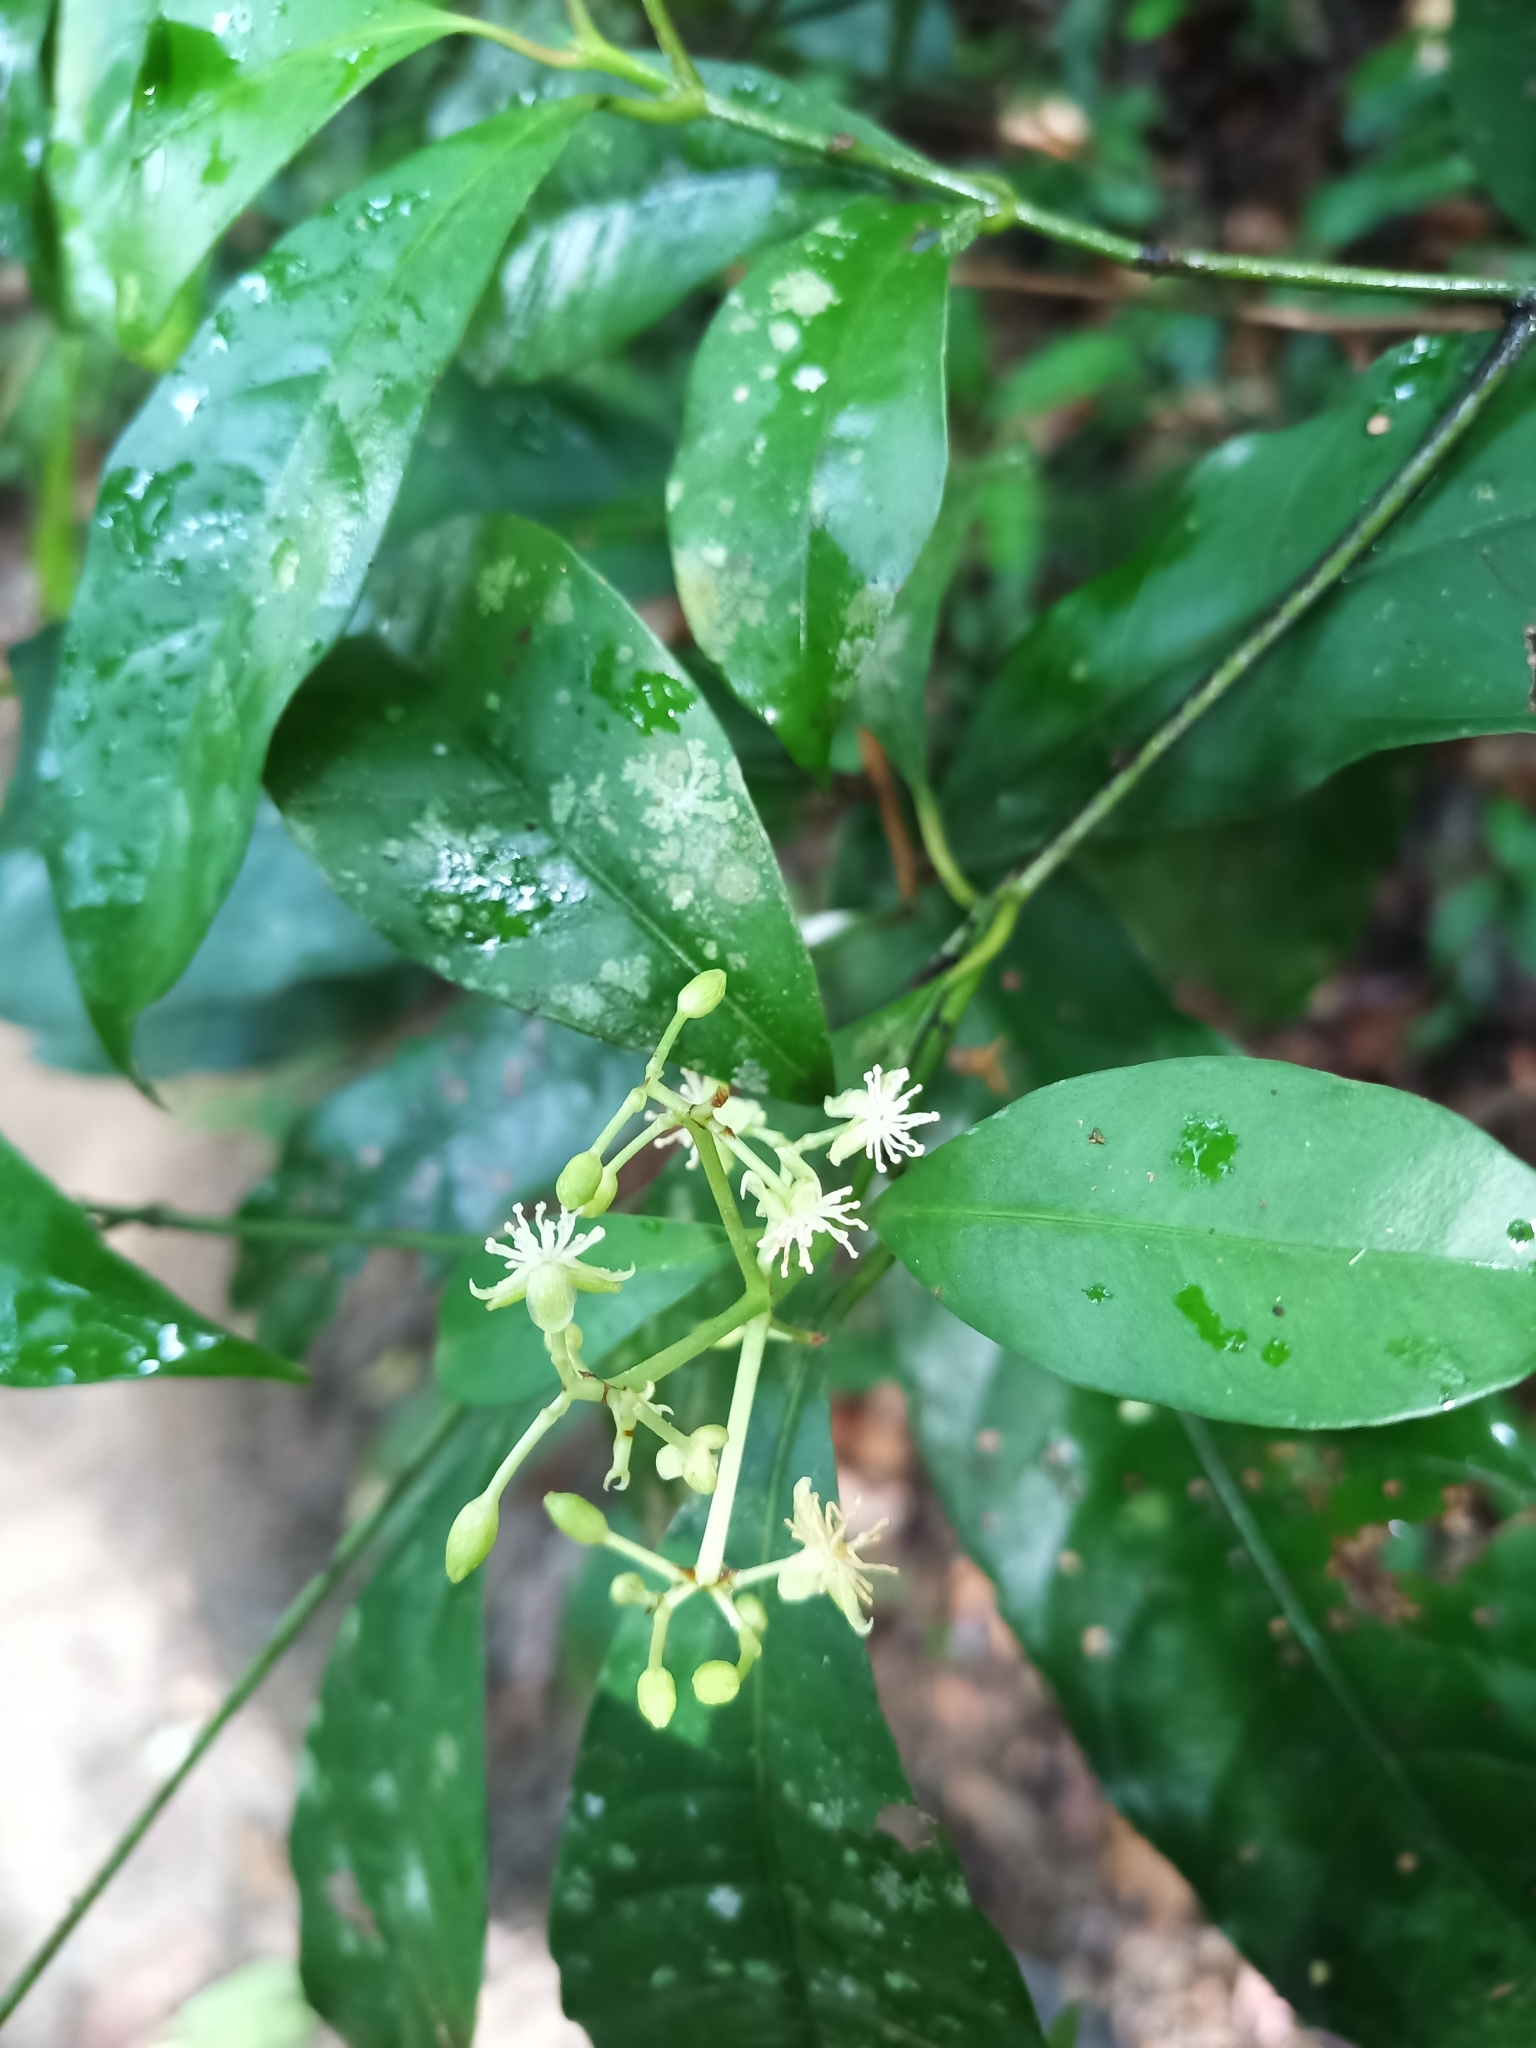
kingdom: Plantae
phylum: Tracheophyta
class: Magnoliopsida
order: Malpighiales
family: Clusiaceae
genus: Tovomita
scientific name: Tovomita saulensis
